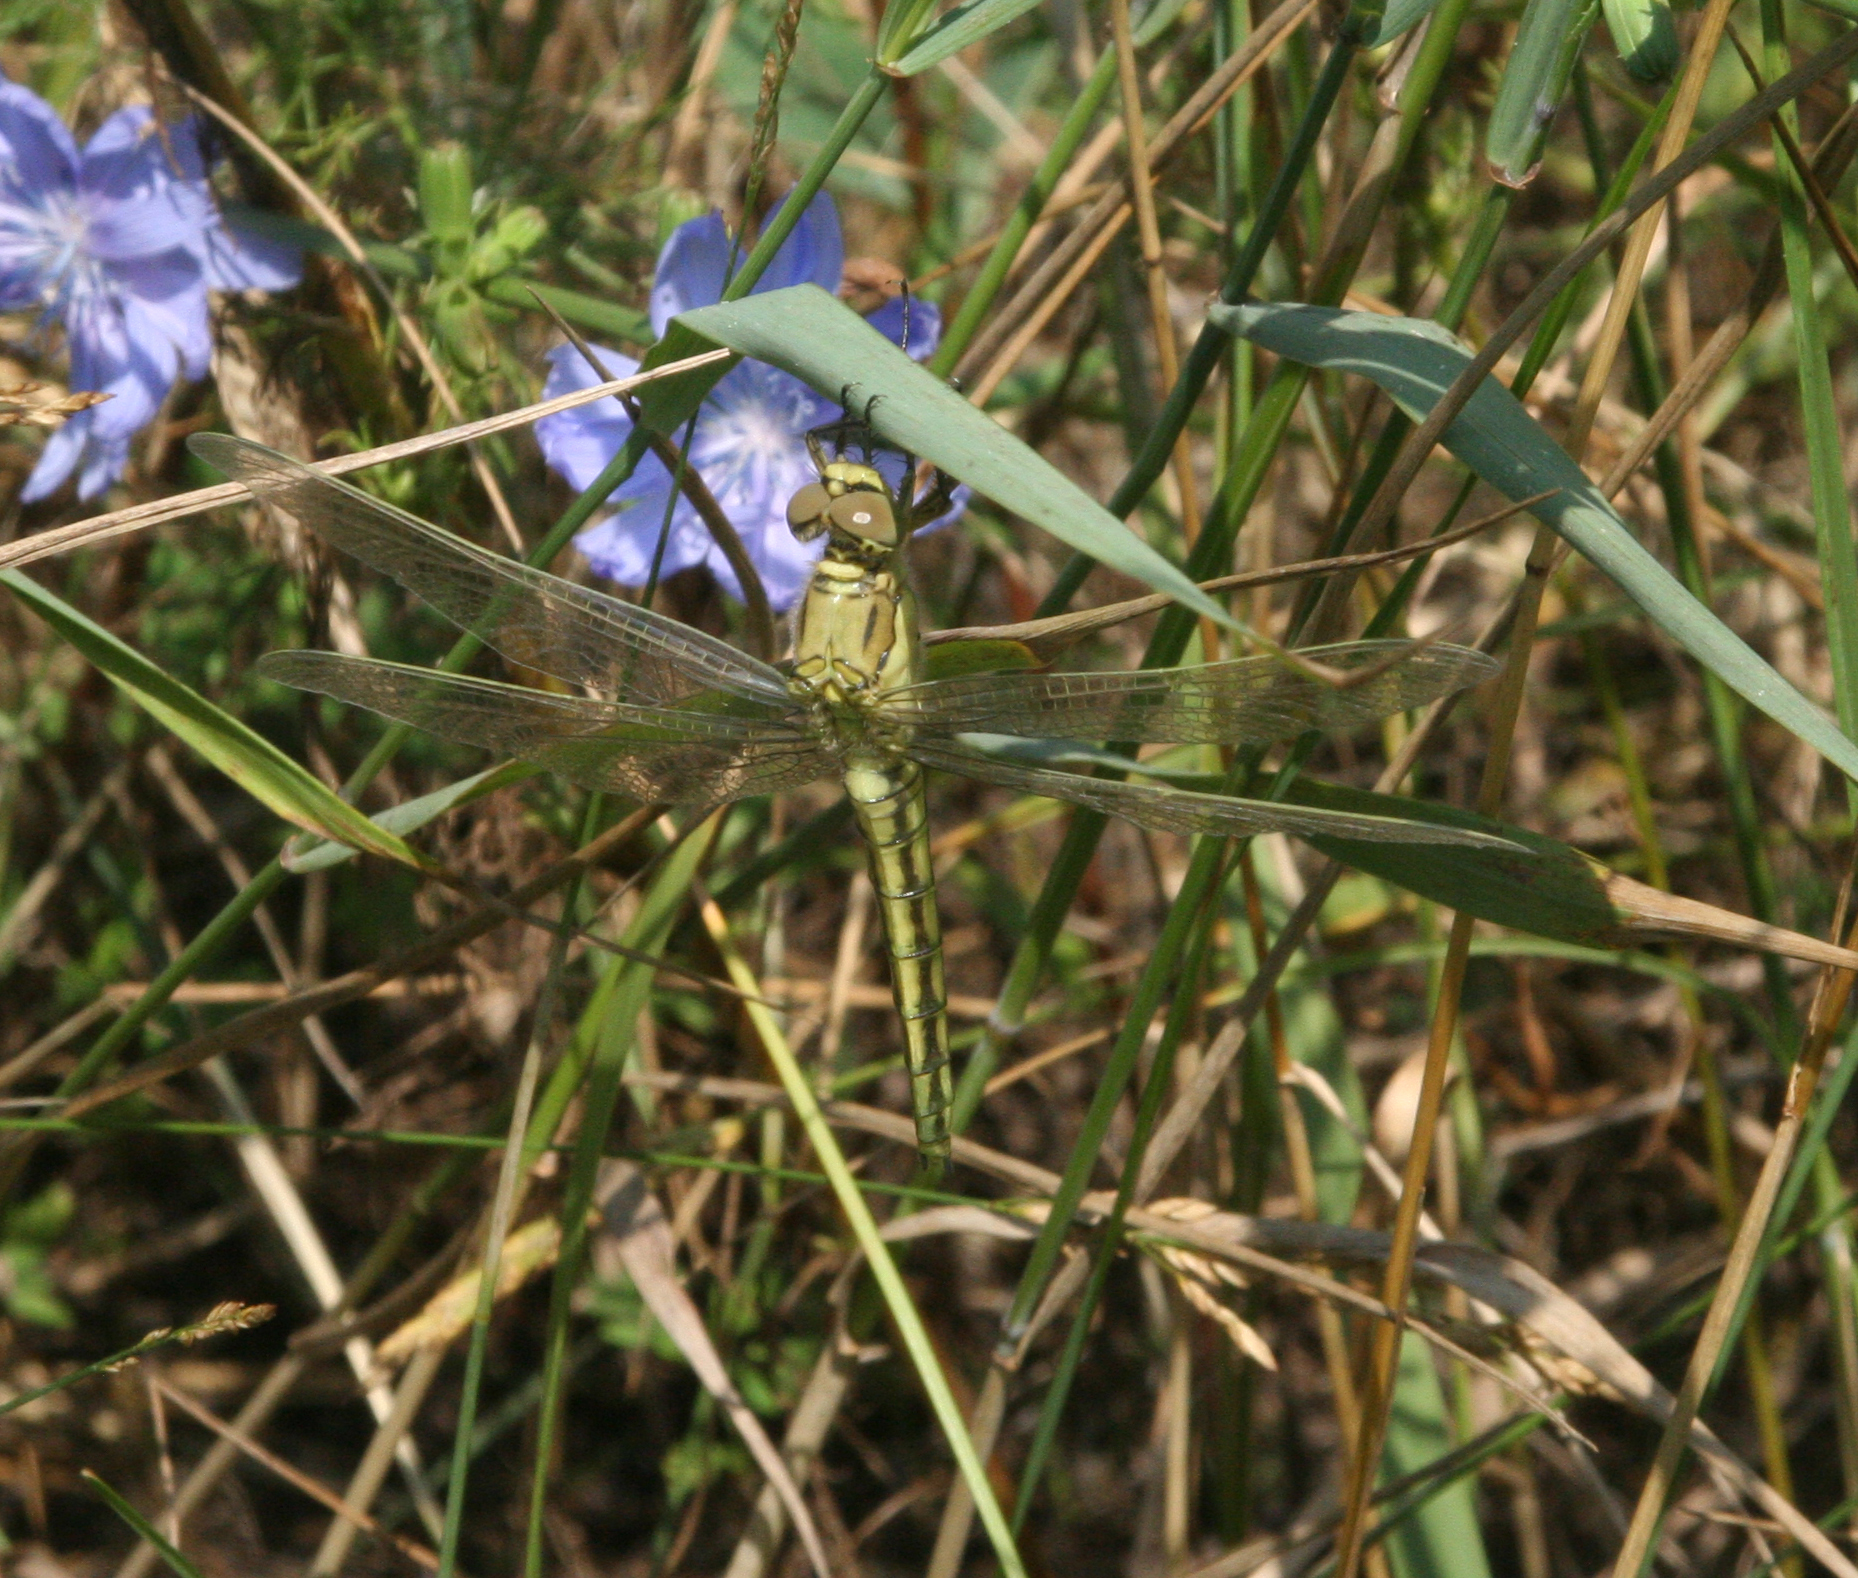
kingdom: Animalia
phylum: Arthropoda
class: Insecta
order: Odonata
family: Libellulidae
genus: Orthetrum
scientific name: Orthetrum cancellatum
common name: Black-tailed skimmer
